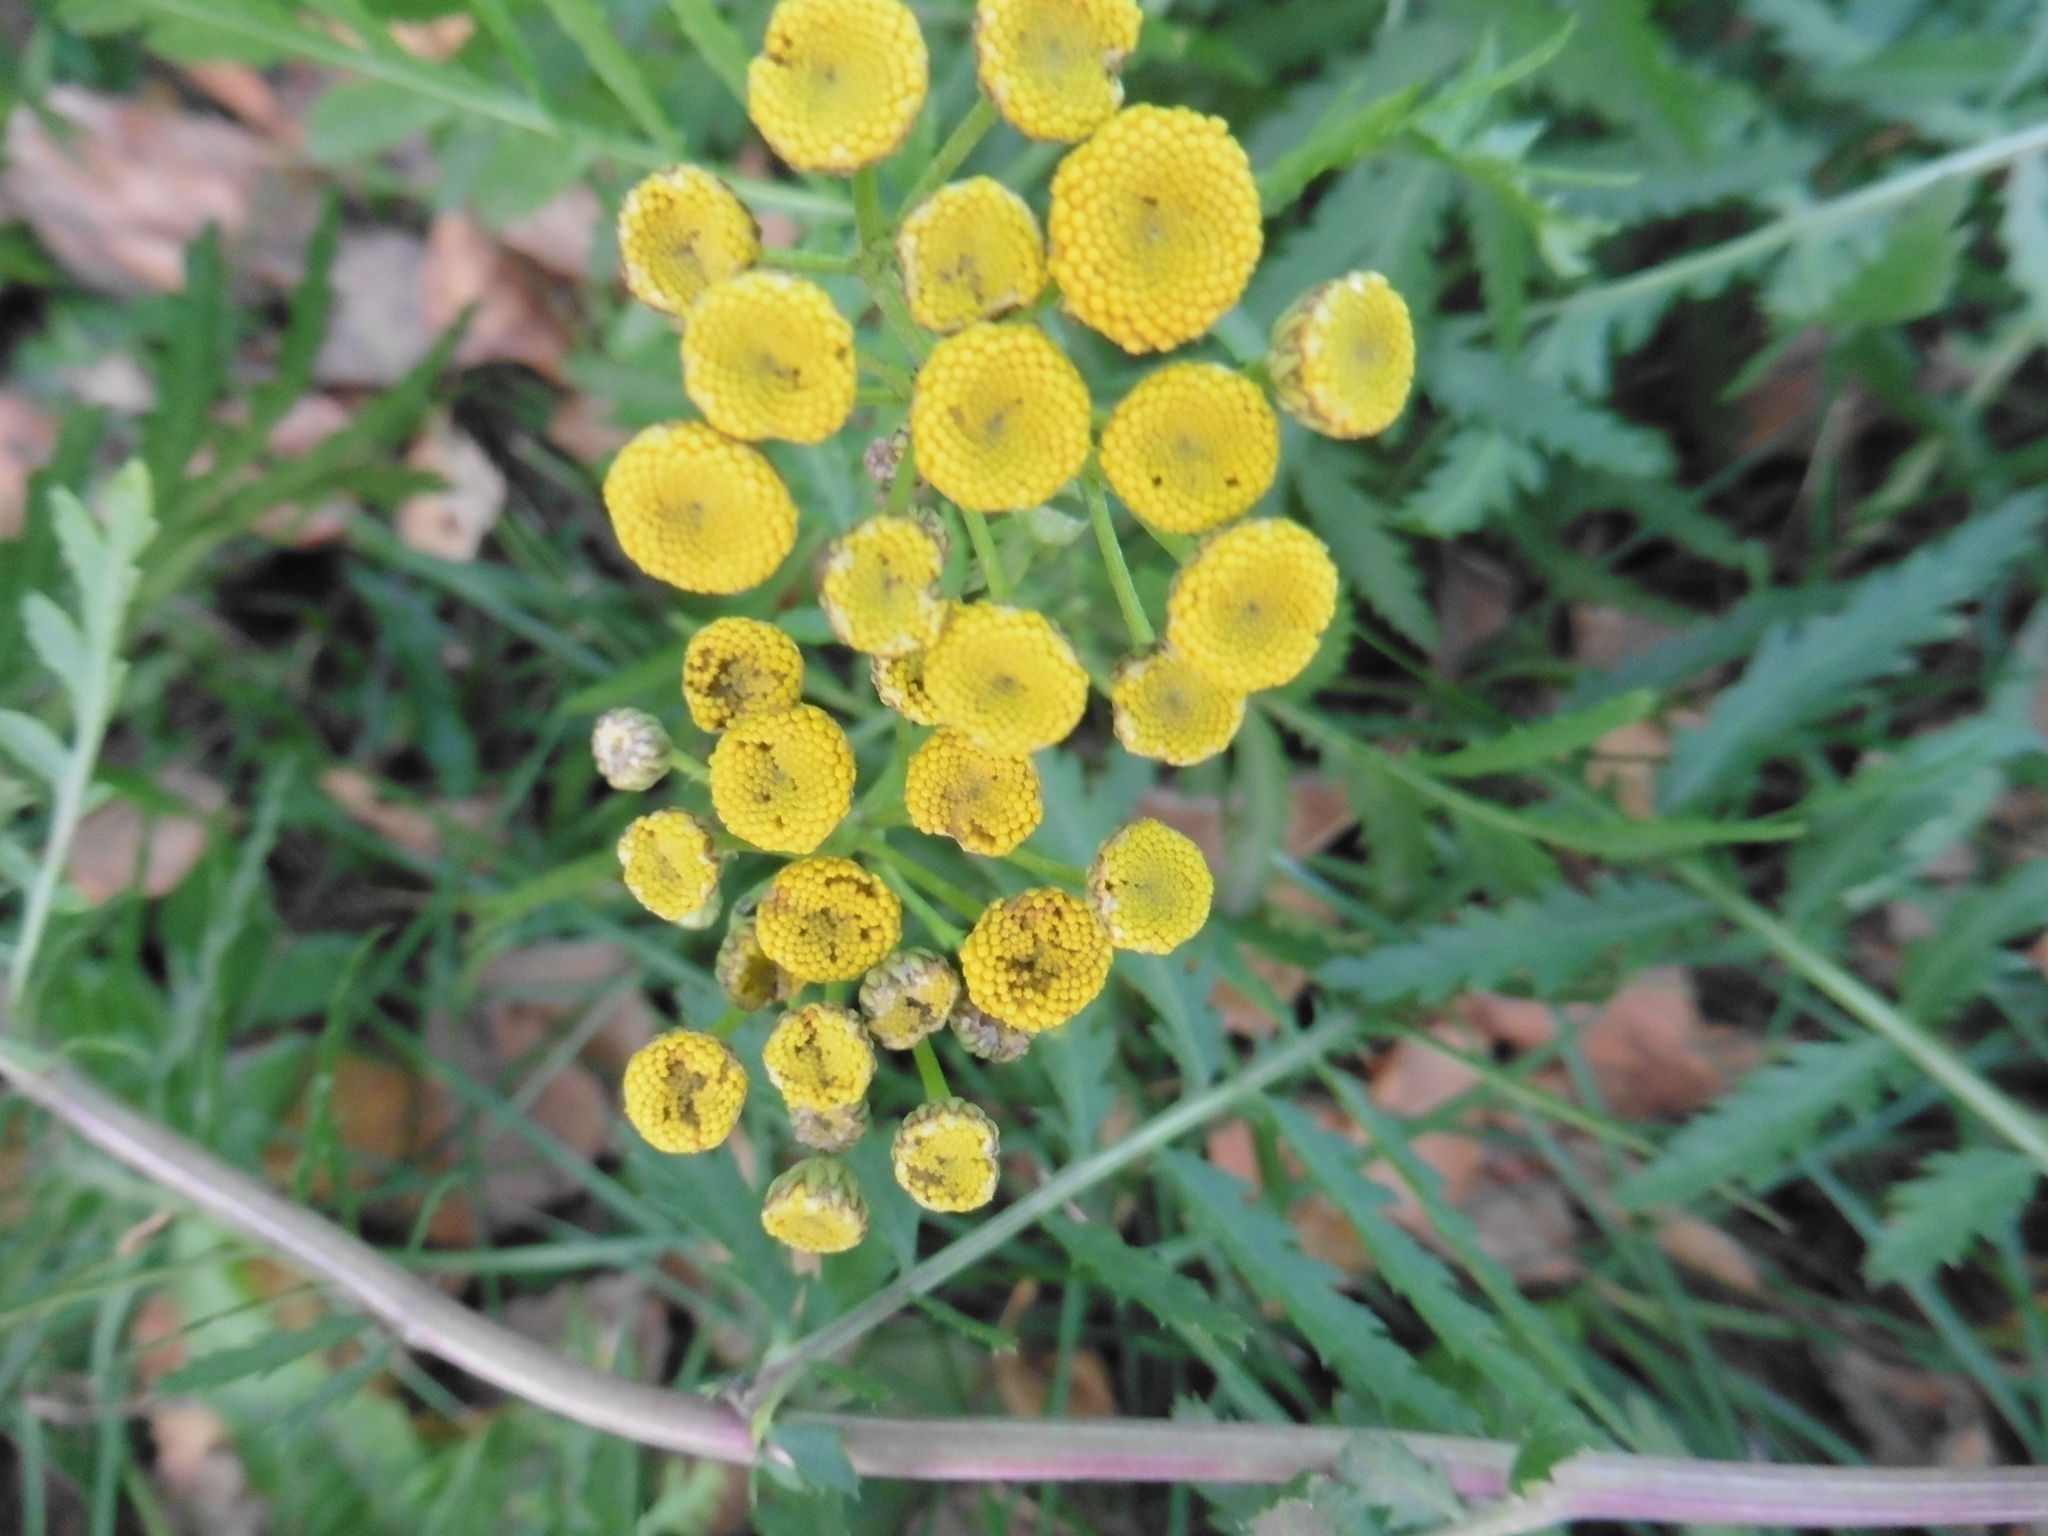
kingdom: Plantae
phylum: Tracheophyta
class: Magnoliopsida
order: Asterales
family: Asteraceae
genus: Tanacetum
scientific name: Tanacetum vulgare
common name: Common tansy
